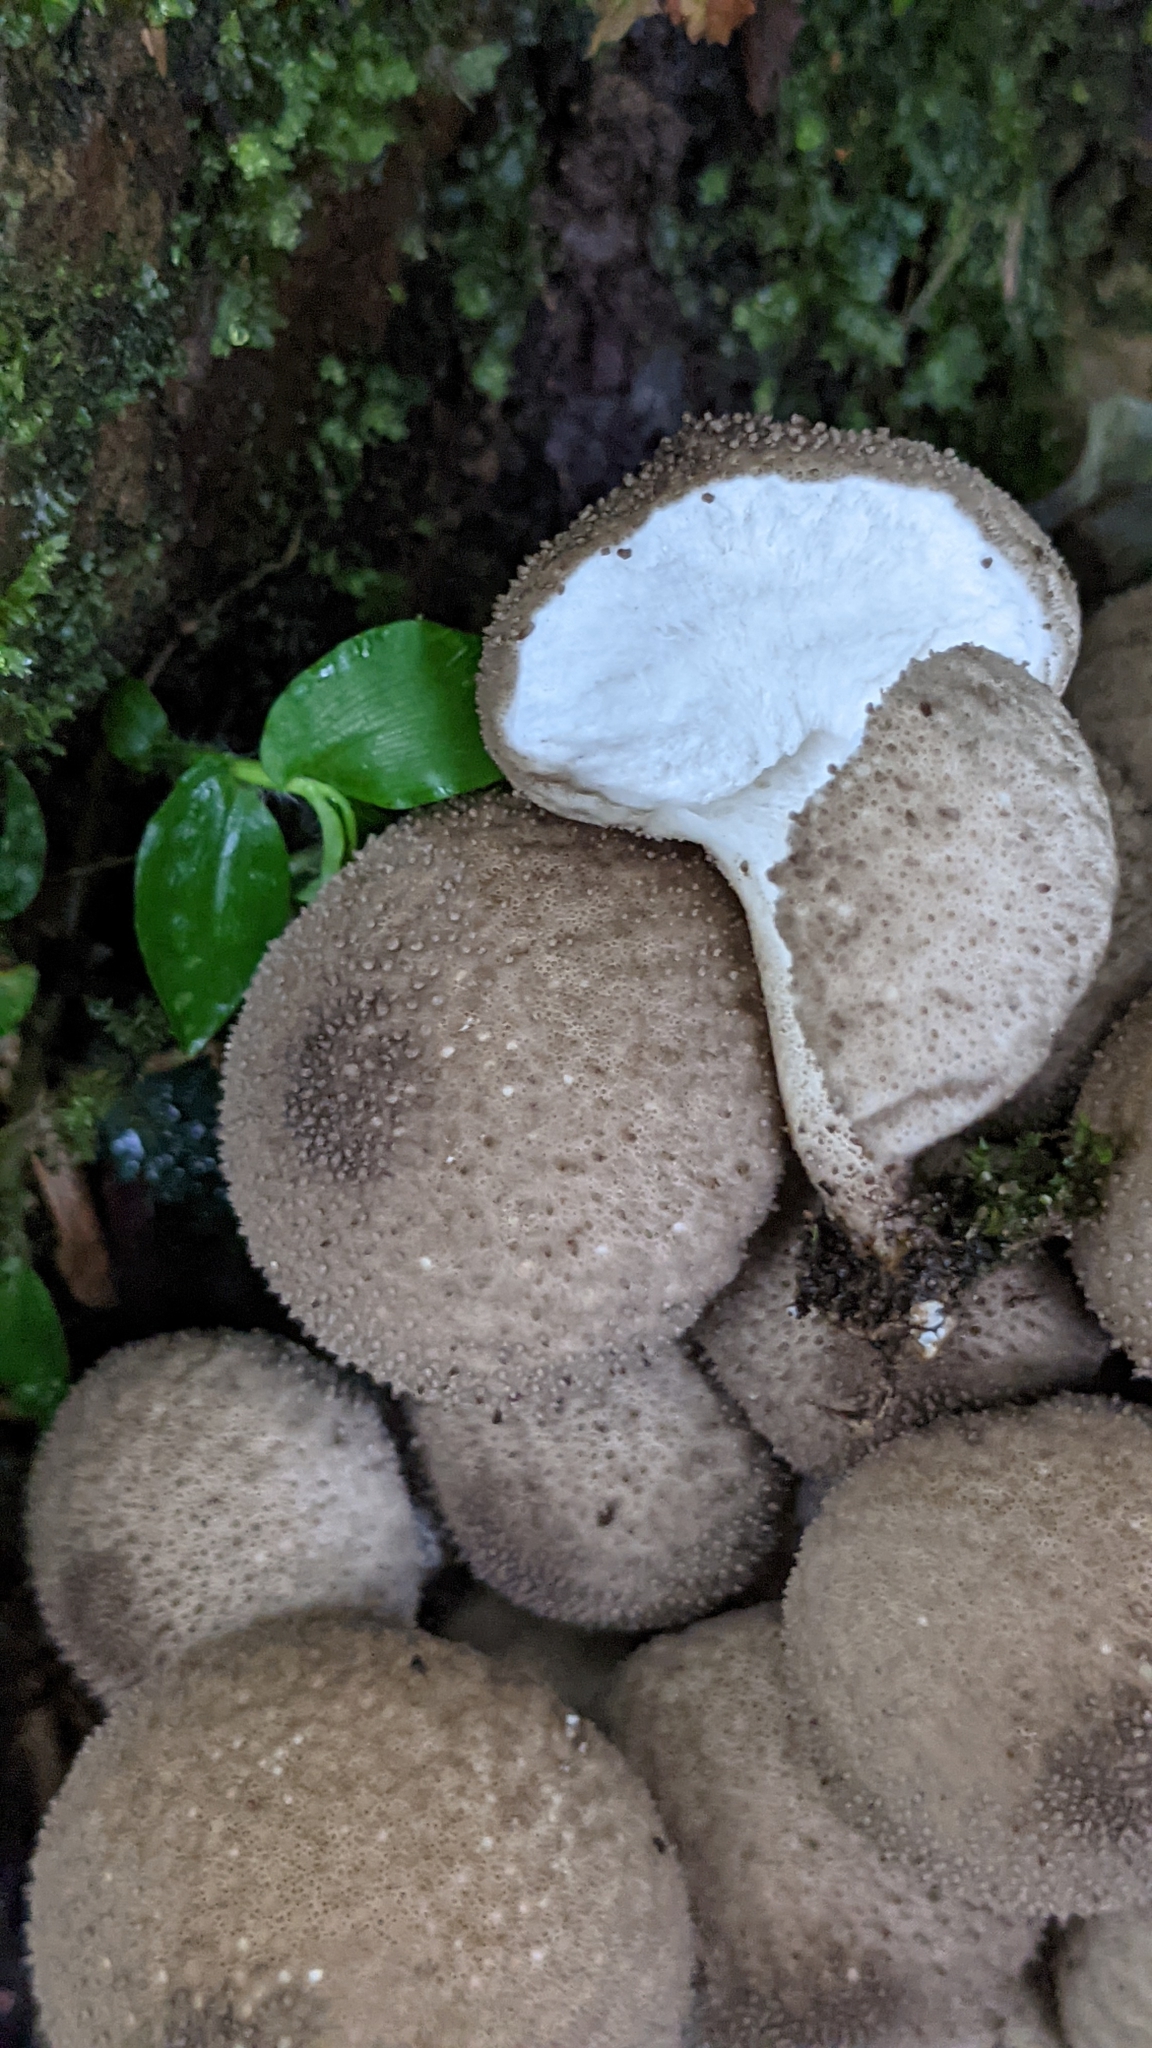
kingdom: Fungi
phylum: Basidiomycota
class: Agaricomycetes
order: Agaricales
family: Lycoperdaceae
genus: Lycoperdon
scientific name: Lycoperdon perlatum
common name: Common puffball
